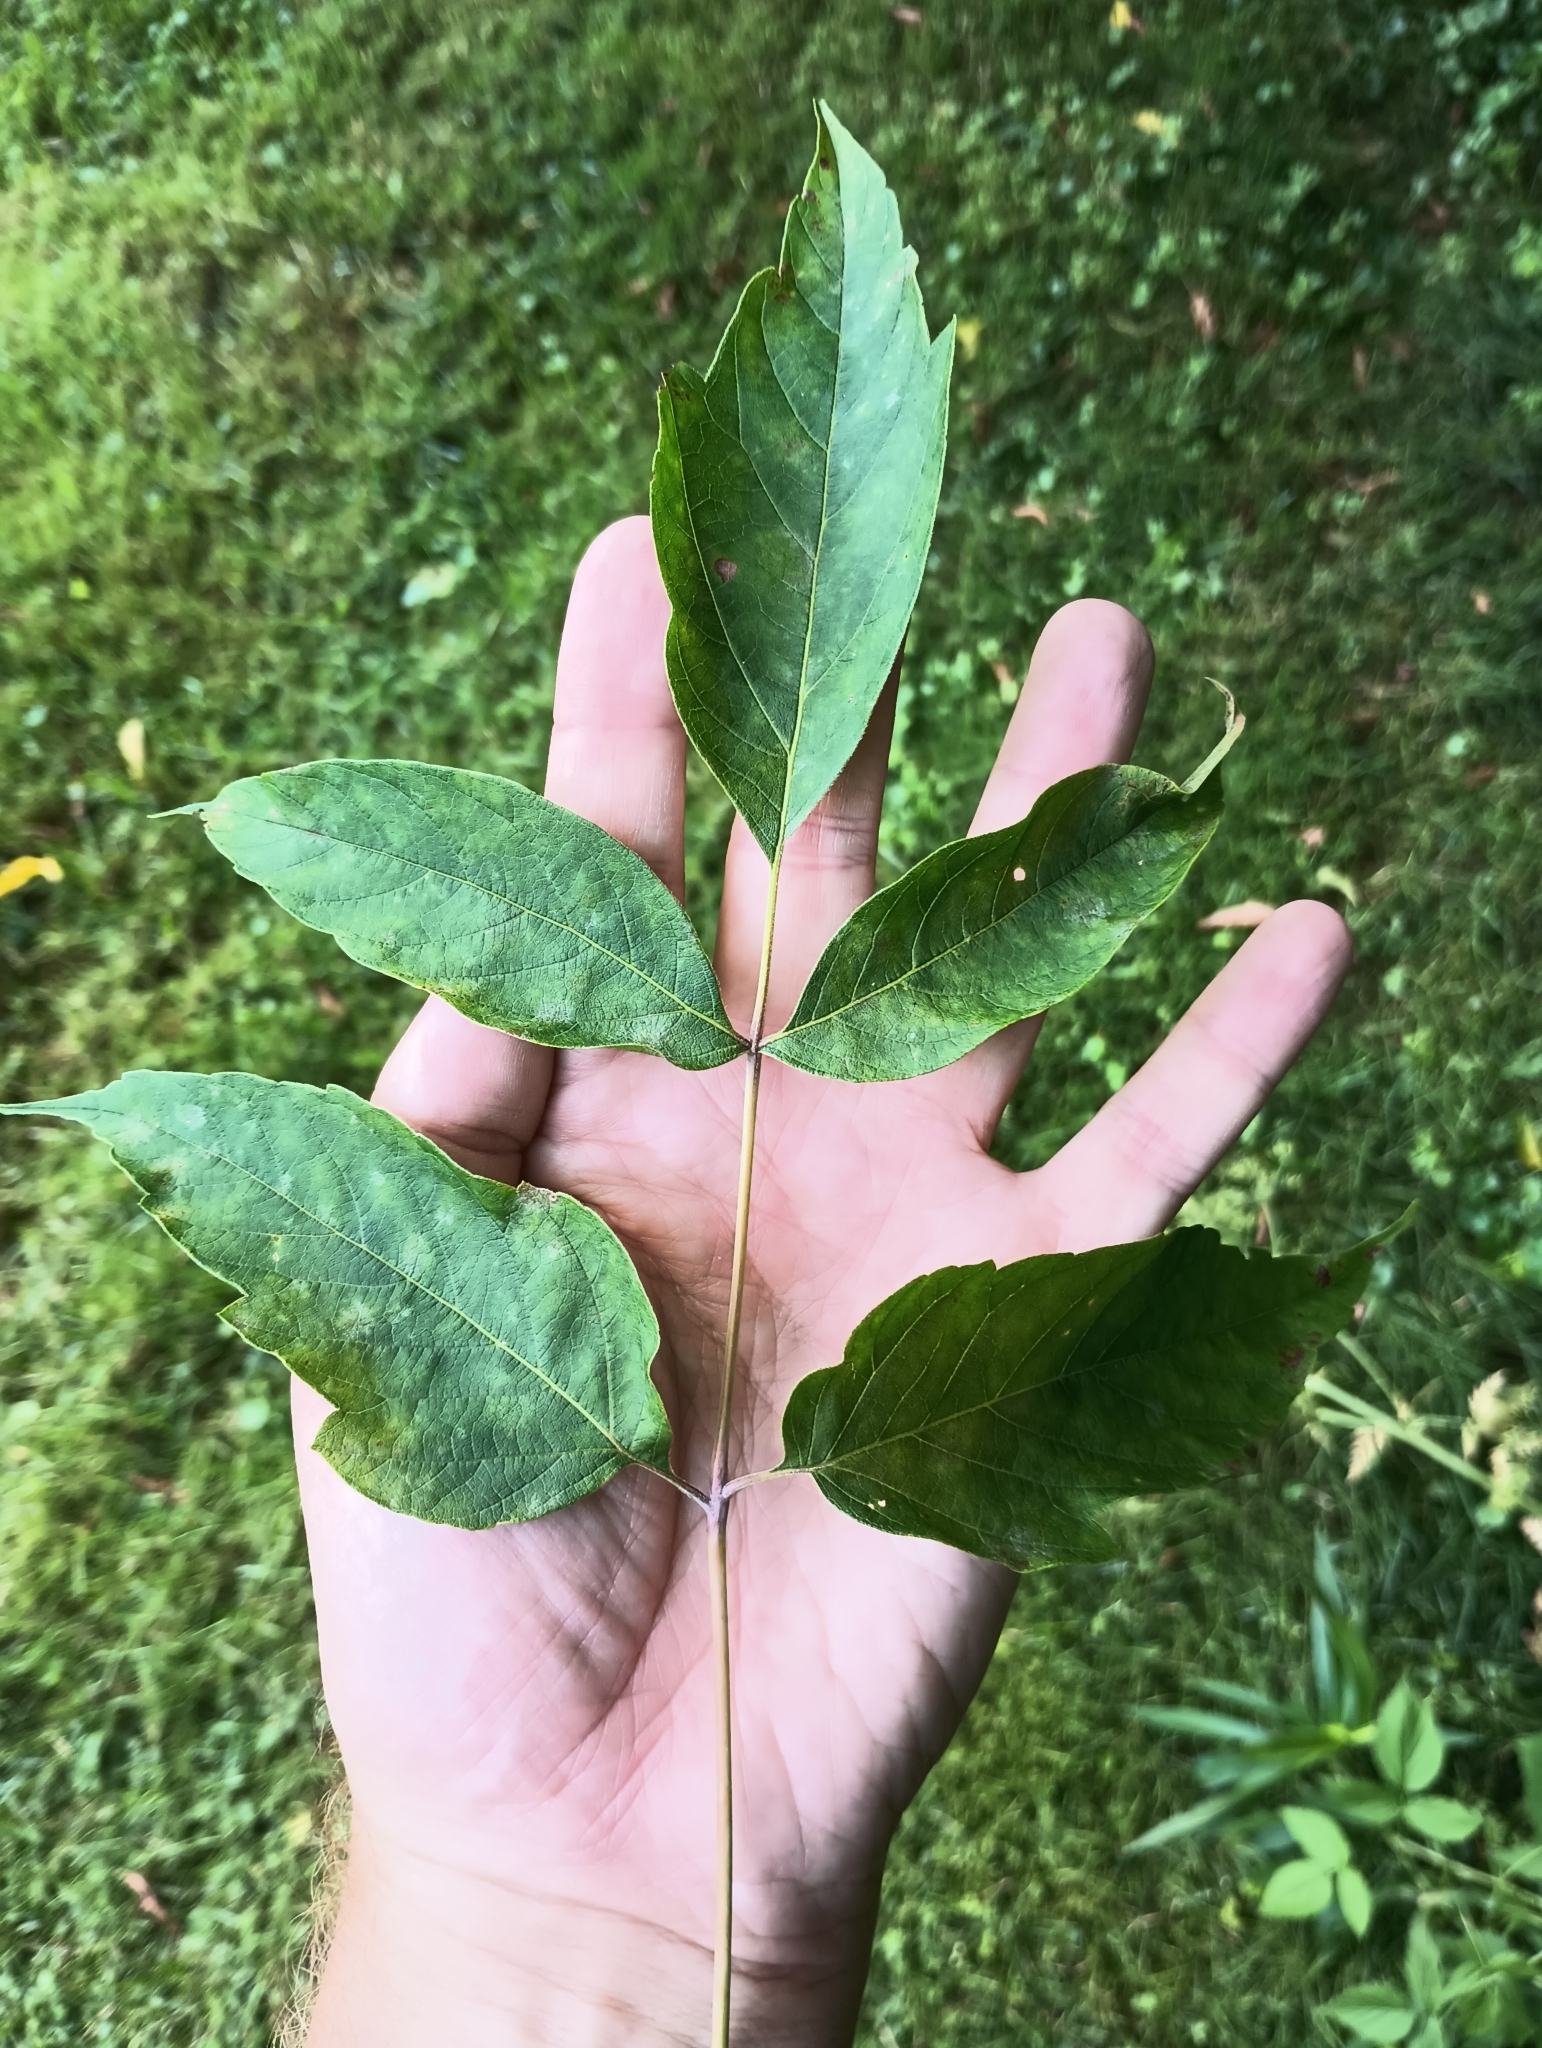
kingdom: Plantae
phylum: Tracheophyta
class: Magnoliopsida
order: Sapindales
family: Sapindaceae
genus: Acer
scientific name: Acer negundo
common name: Ashleaf maple
